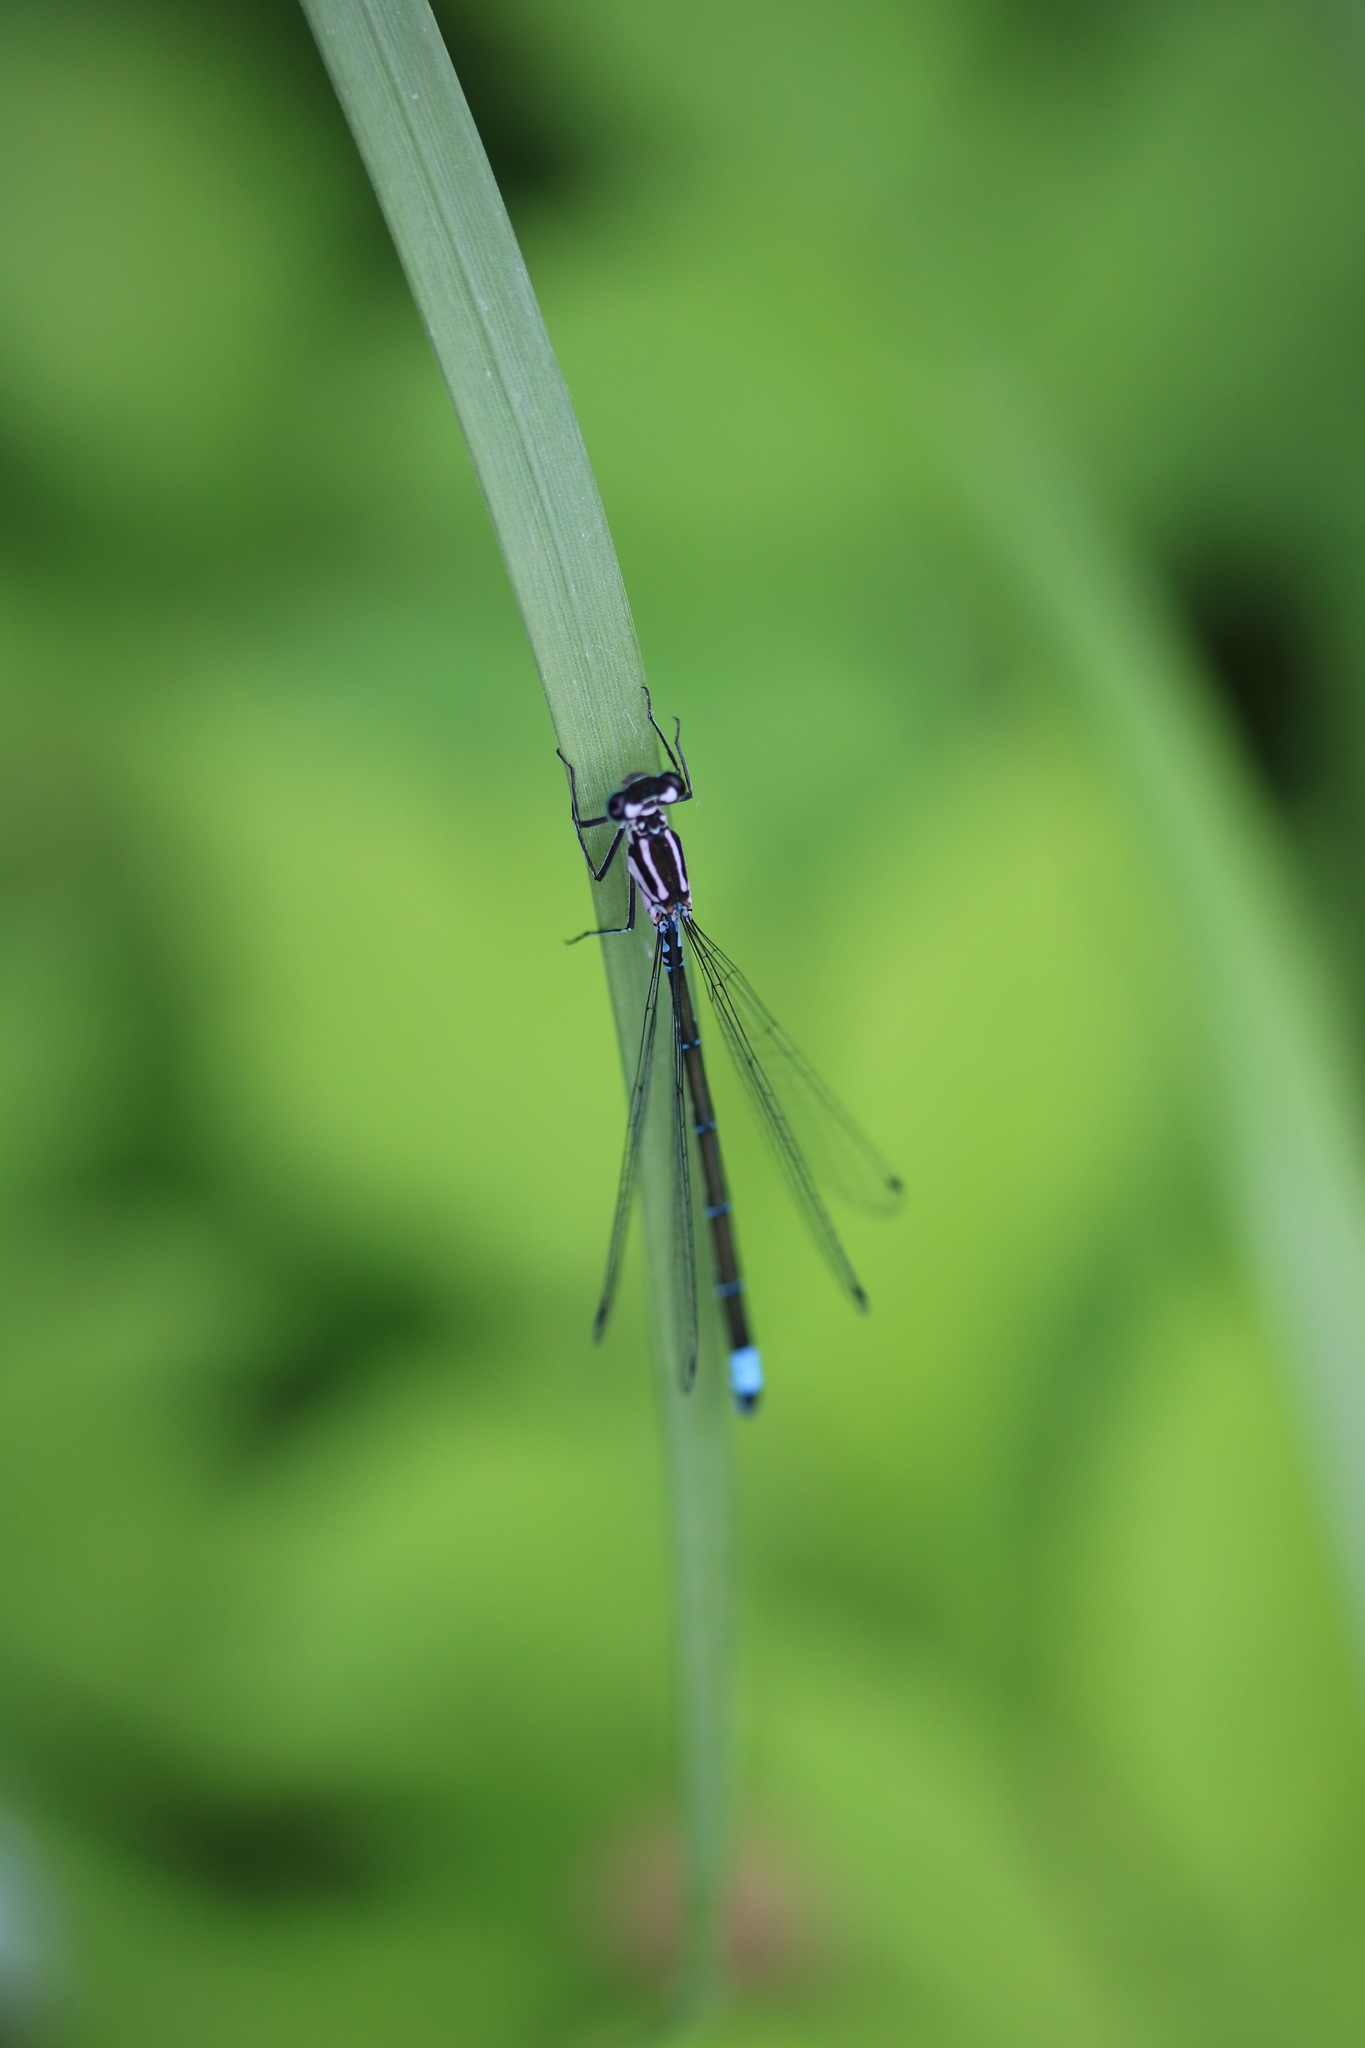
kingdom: Animalia
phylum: Arthropoda
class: Insecta
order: Odonata
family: Coenagrionidae
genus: Coenagrion
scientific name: Coenagrion pulchellum
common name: Variable bluet
